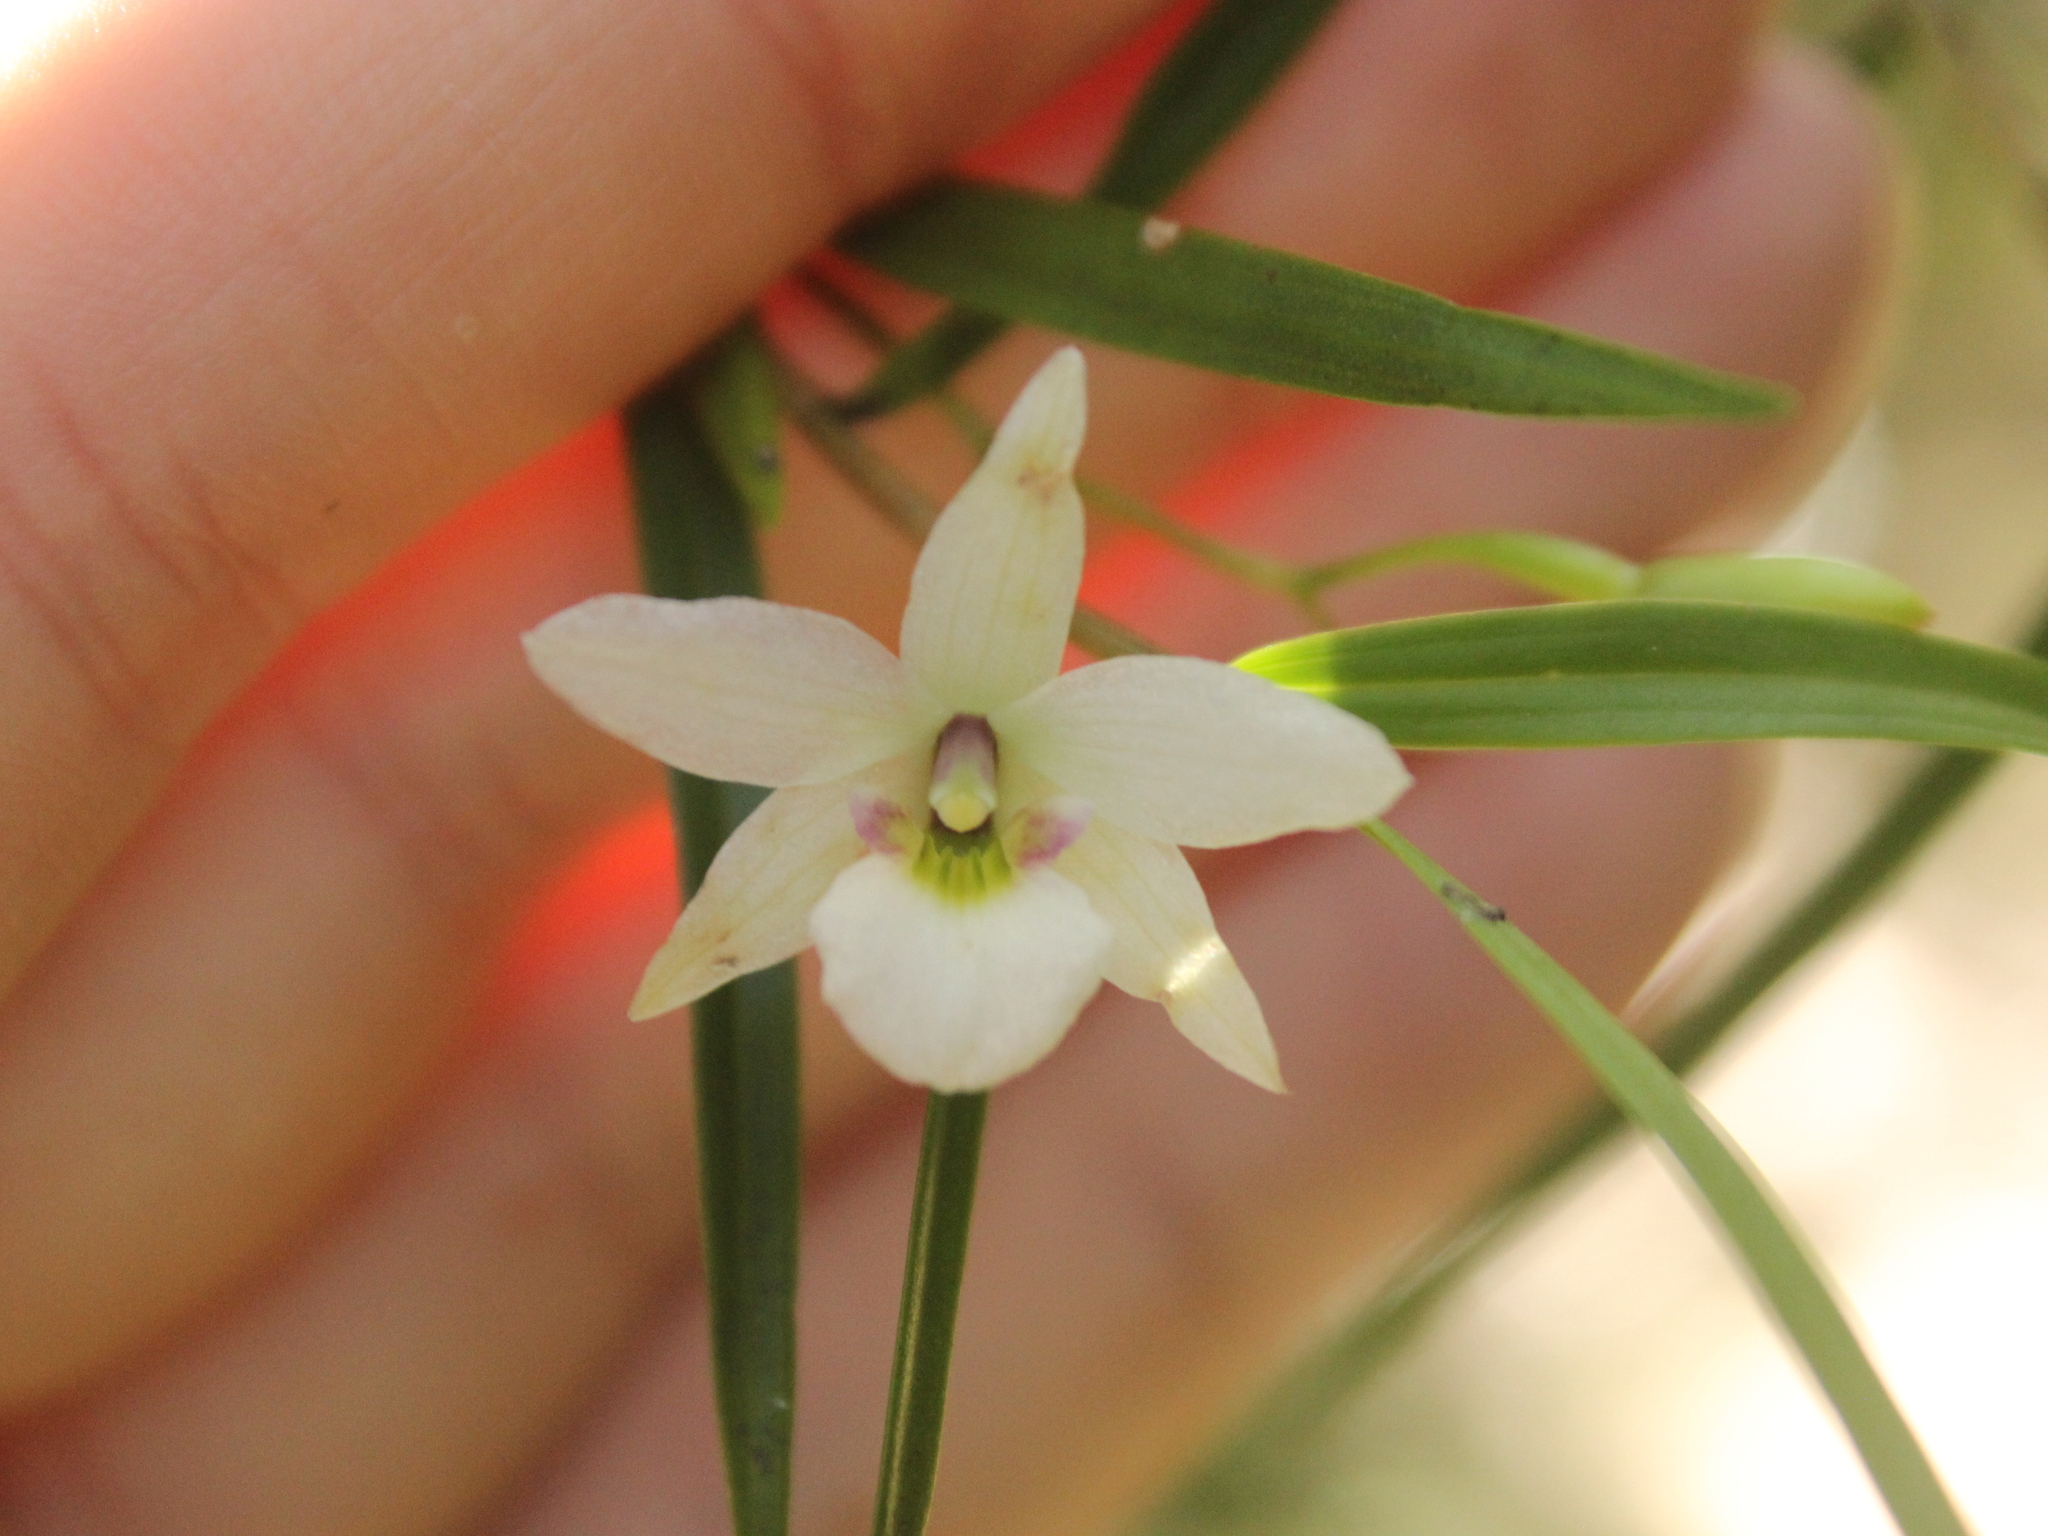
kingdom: Plantae
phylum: Tracheophyta
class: Liliopsida
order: Asparagales
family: Orchidaceae
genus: Dendrobium
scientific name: Dendrobium cunninghamii
